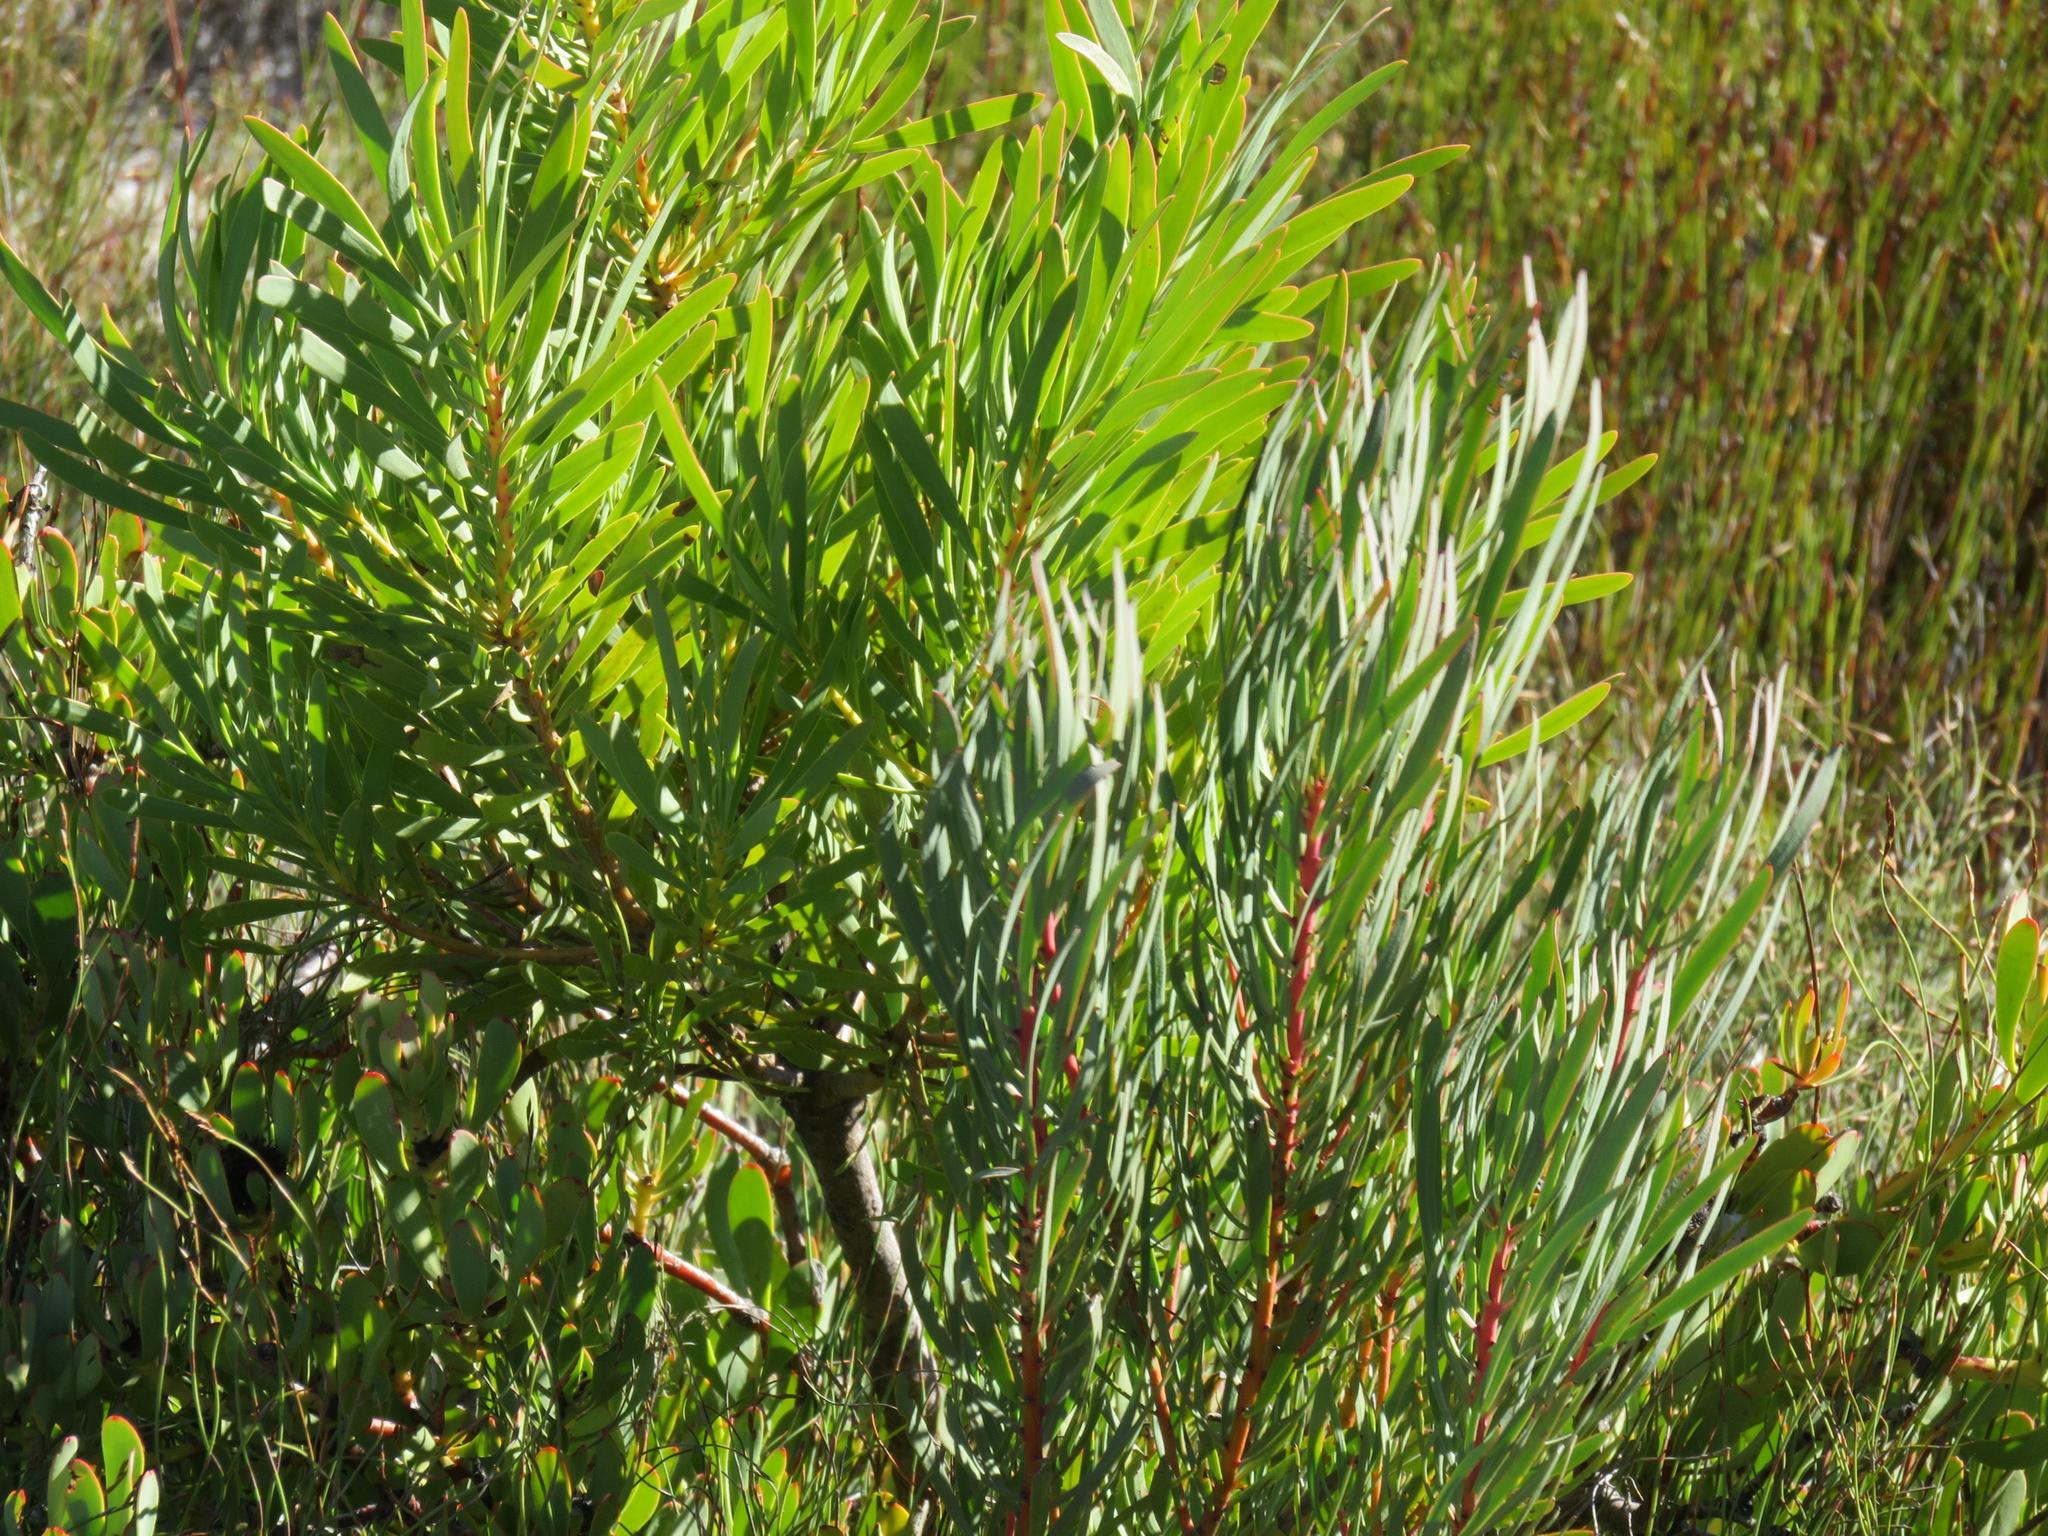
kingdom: Plantae
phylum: Tracheophyta
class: Magnoliopsida
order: Proteales
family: Proteaceae
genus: Protea
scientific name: Protea acuminata
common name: Black-rim sugarbush
